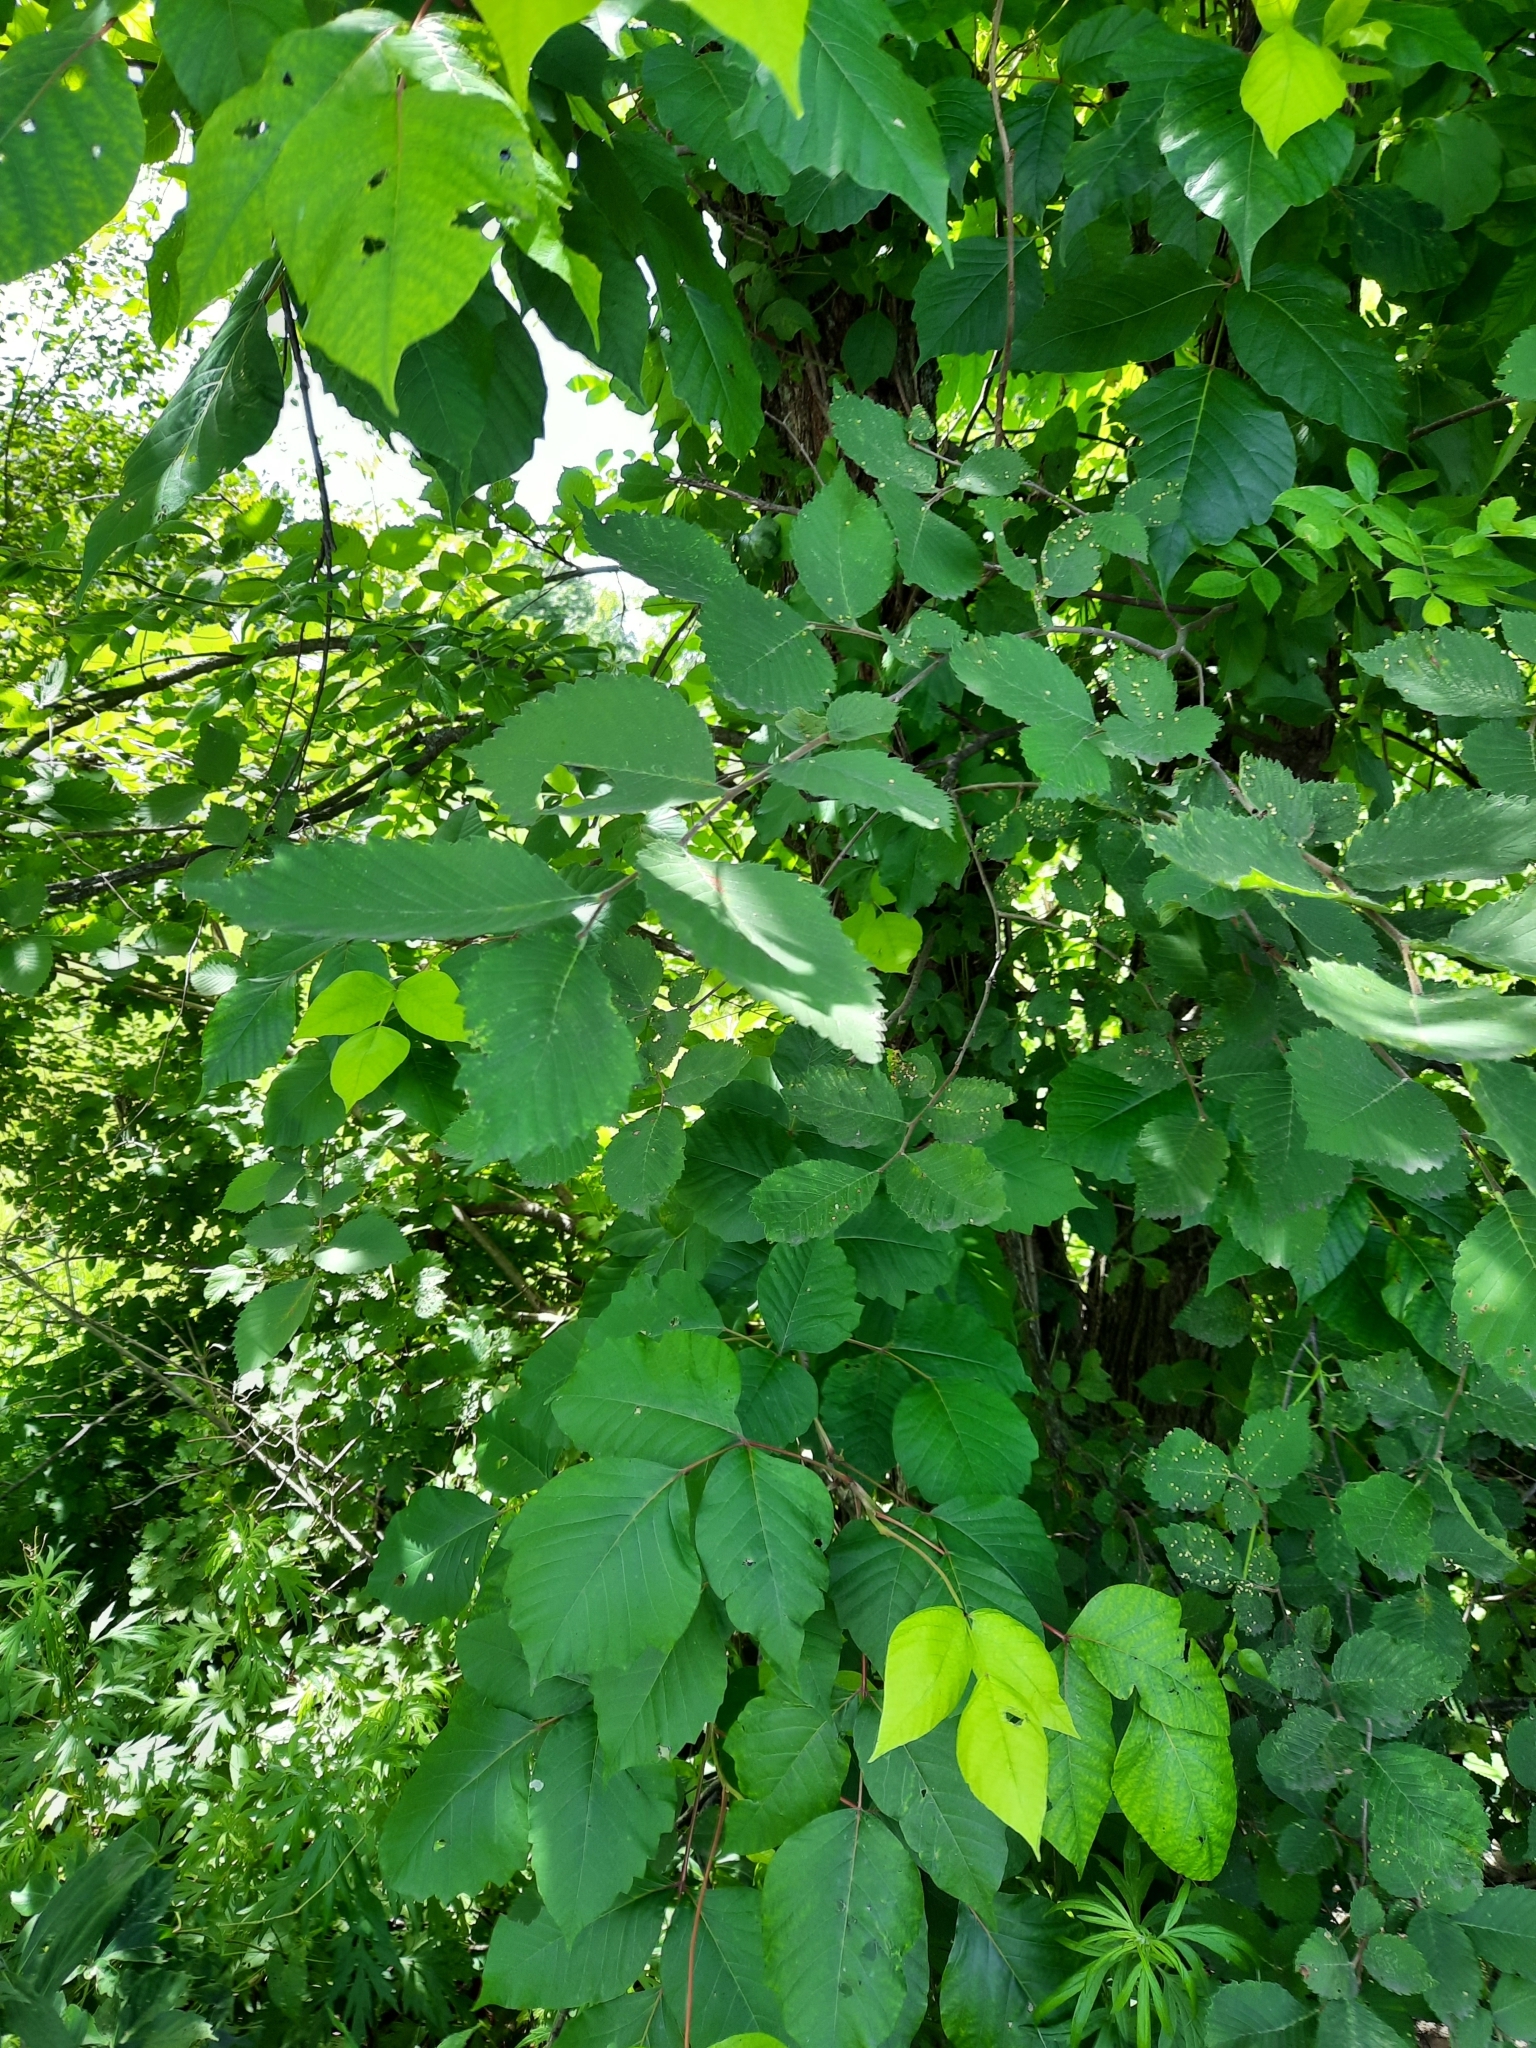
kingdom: Plantae
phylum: Tracheophyta
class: Magnoliopsida
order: Sapindales
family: Anacardiaceae
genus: Toxicodendron
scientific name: Toxicodendron radicans
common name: Poison ivy
